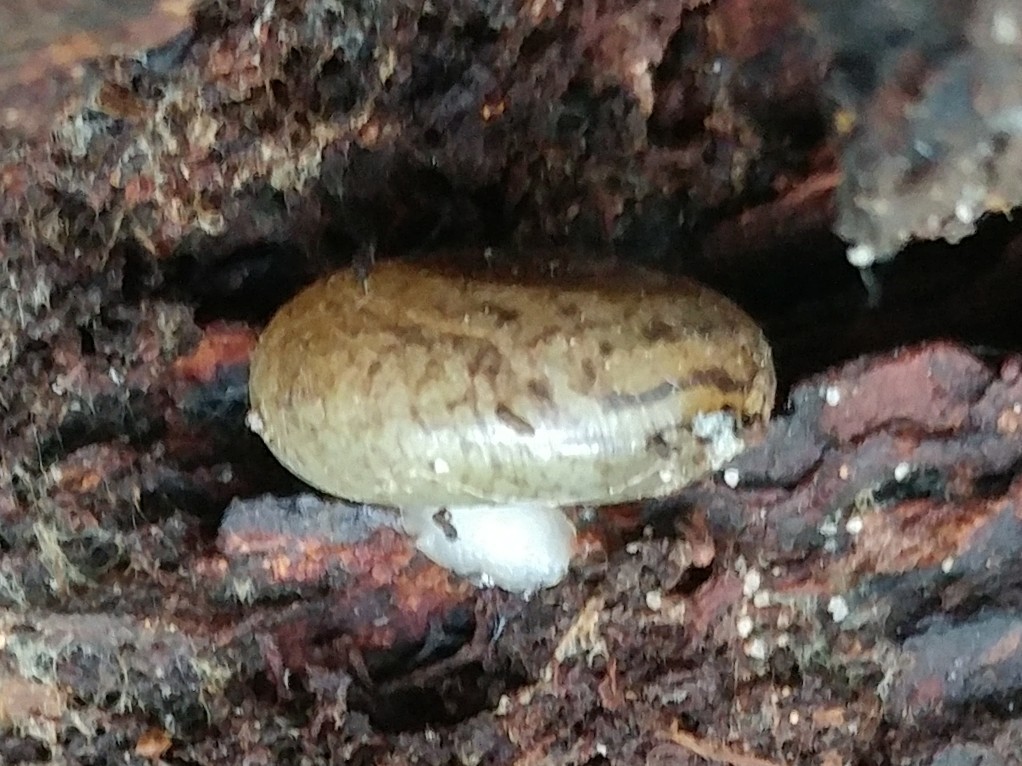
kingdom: Animalia
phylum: Mollusca
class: Gastropoda
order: Stylommatophora
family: Haplotrematidae
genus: Haplotrema
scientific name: Haplotrema minimum
